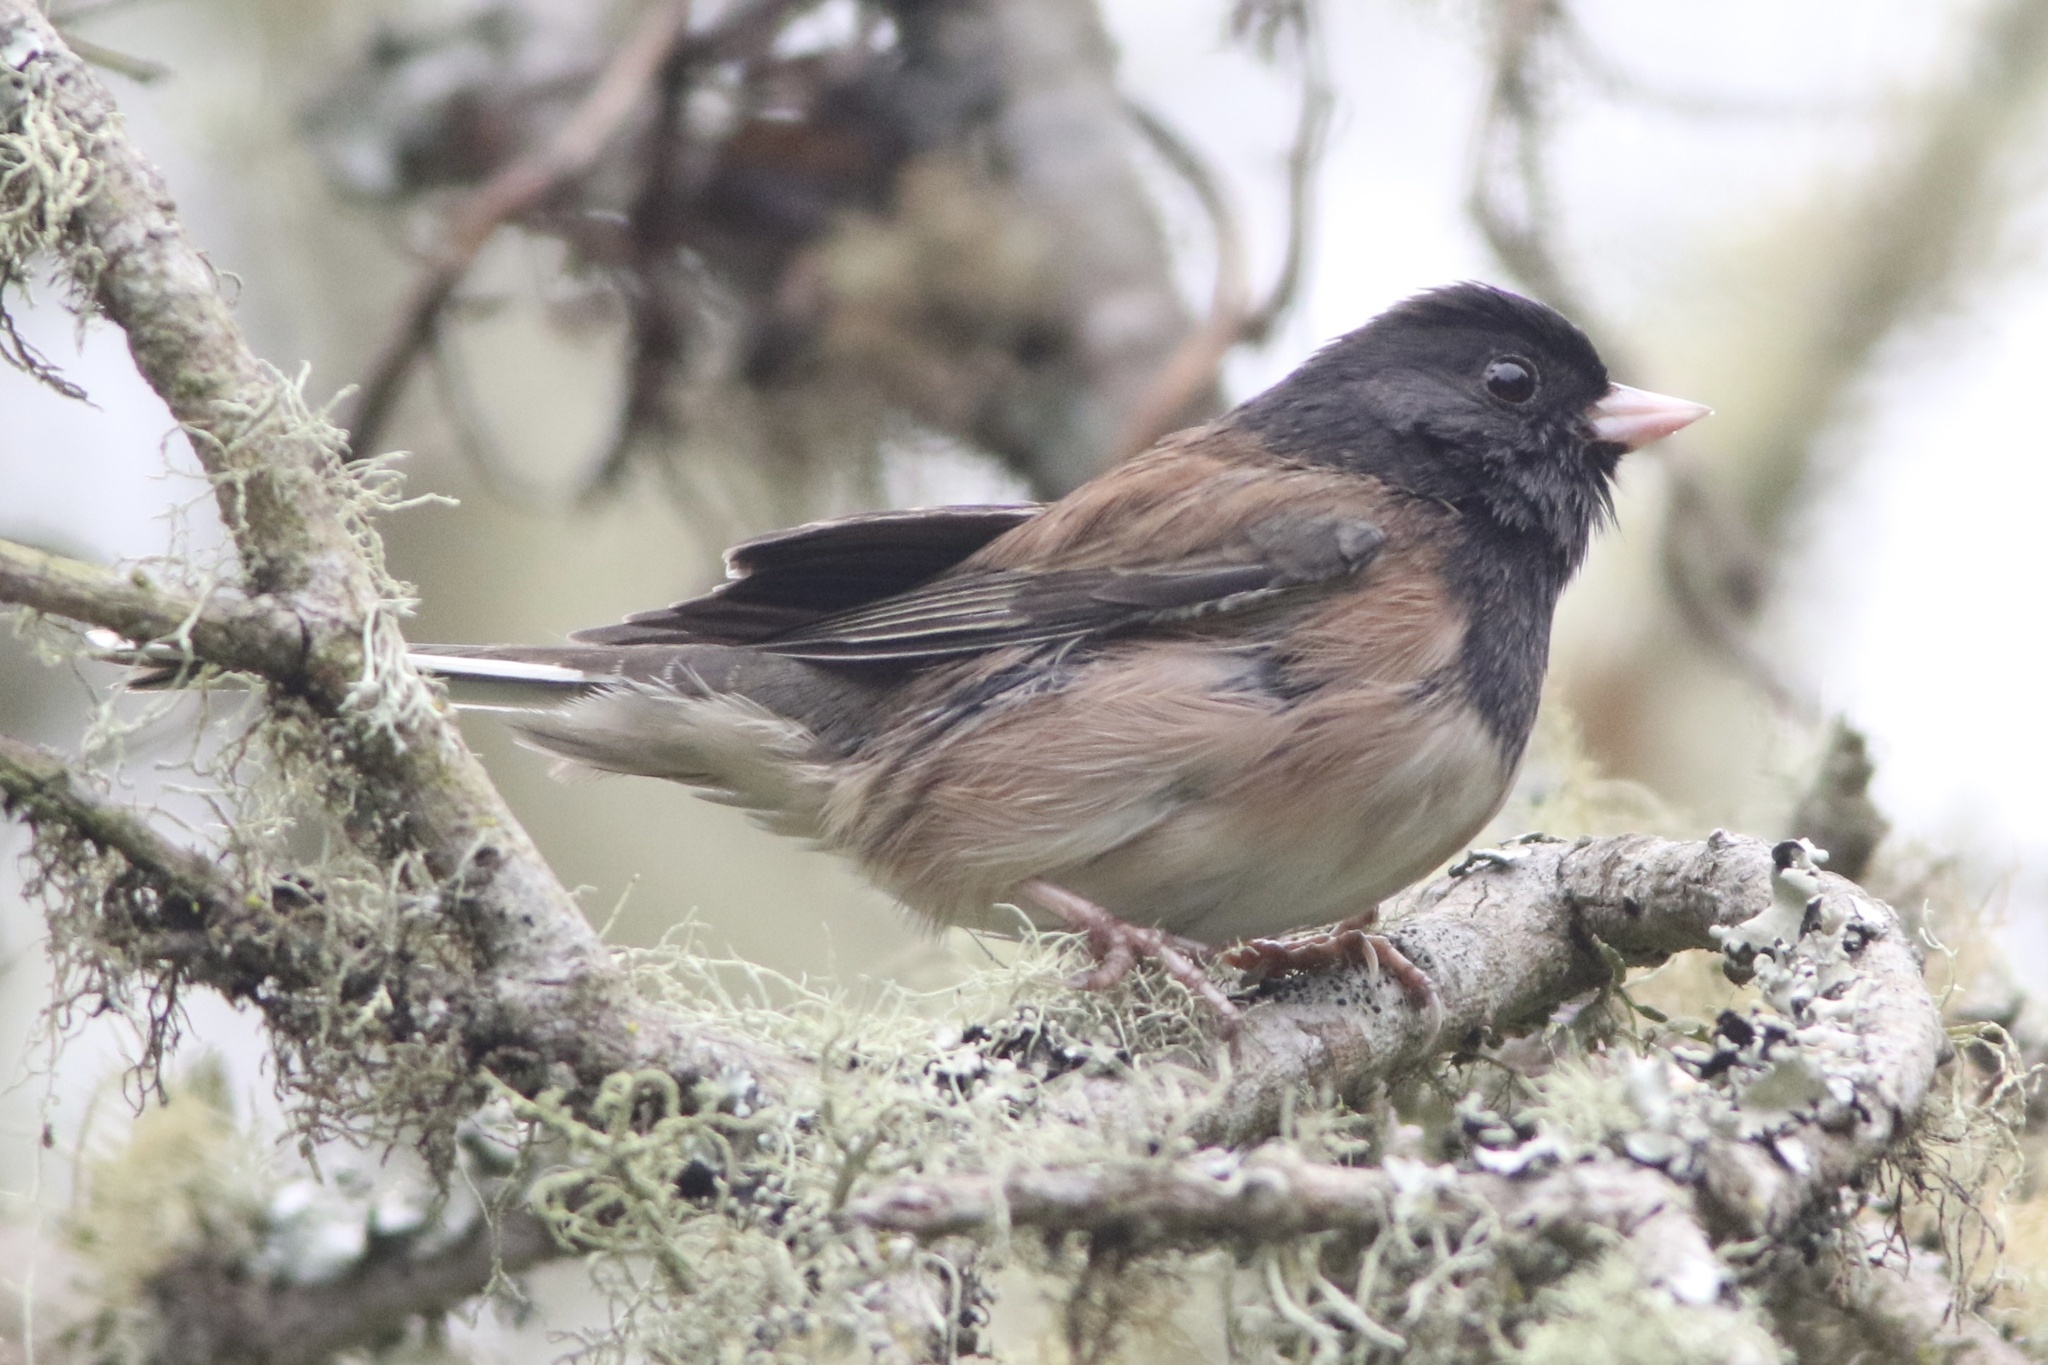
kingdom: Animalia
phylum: Chordata
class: Aves
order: Passeriformes
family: Passerellidae
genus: Junco
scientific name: Junco hyemalis
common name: Dark-eyed junco
